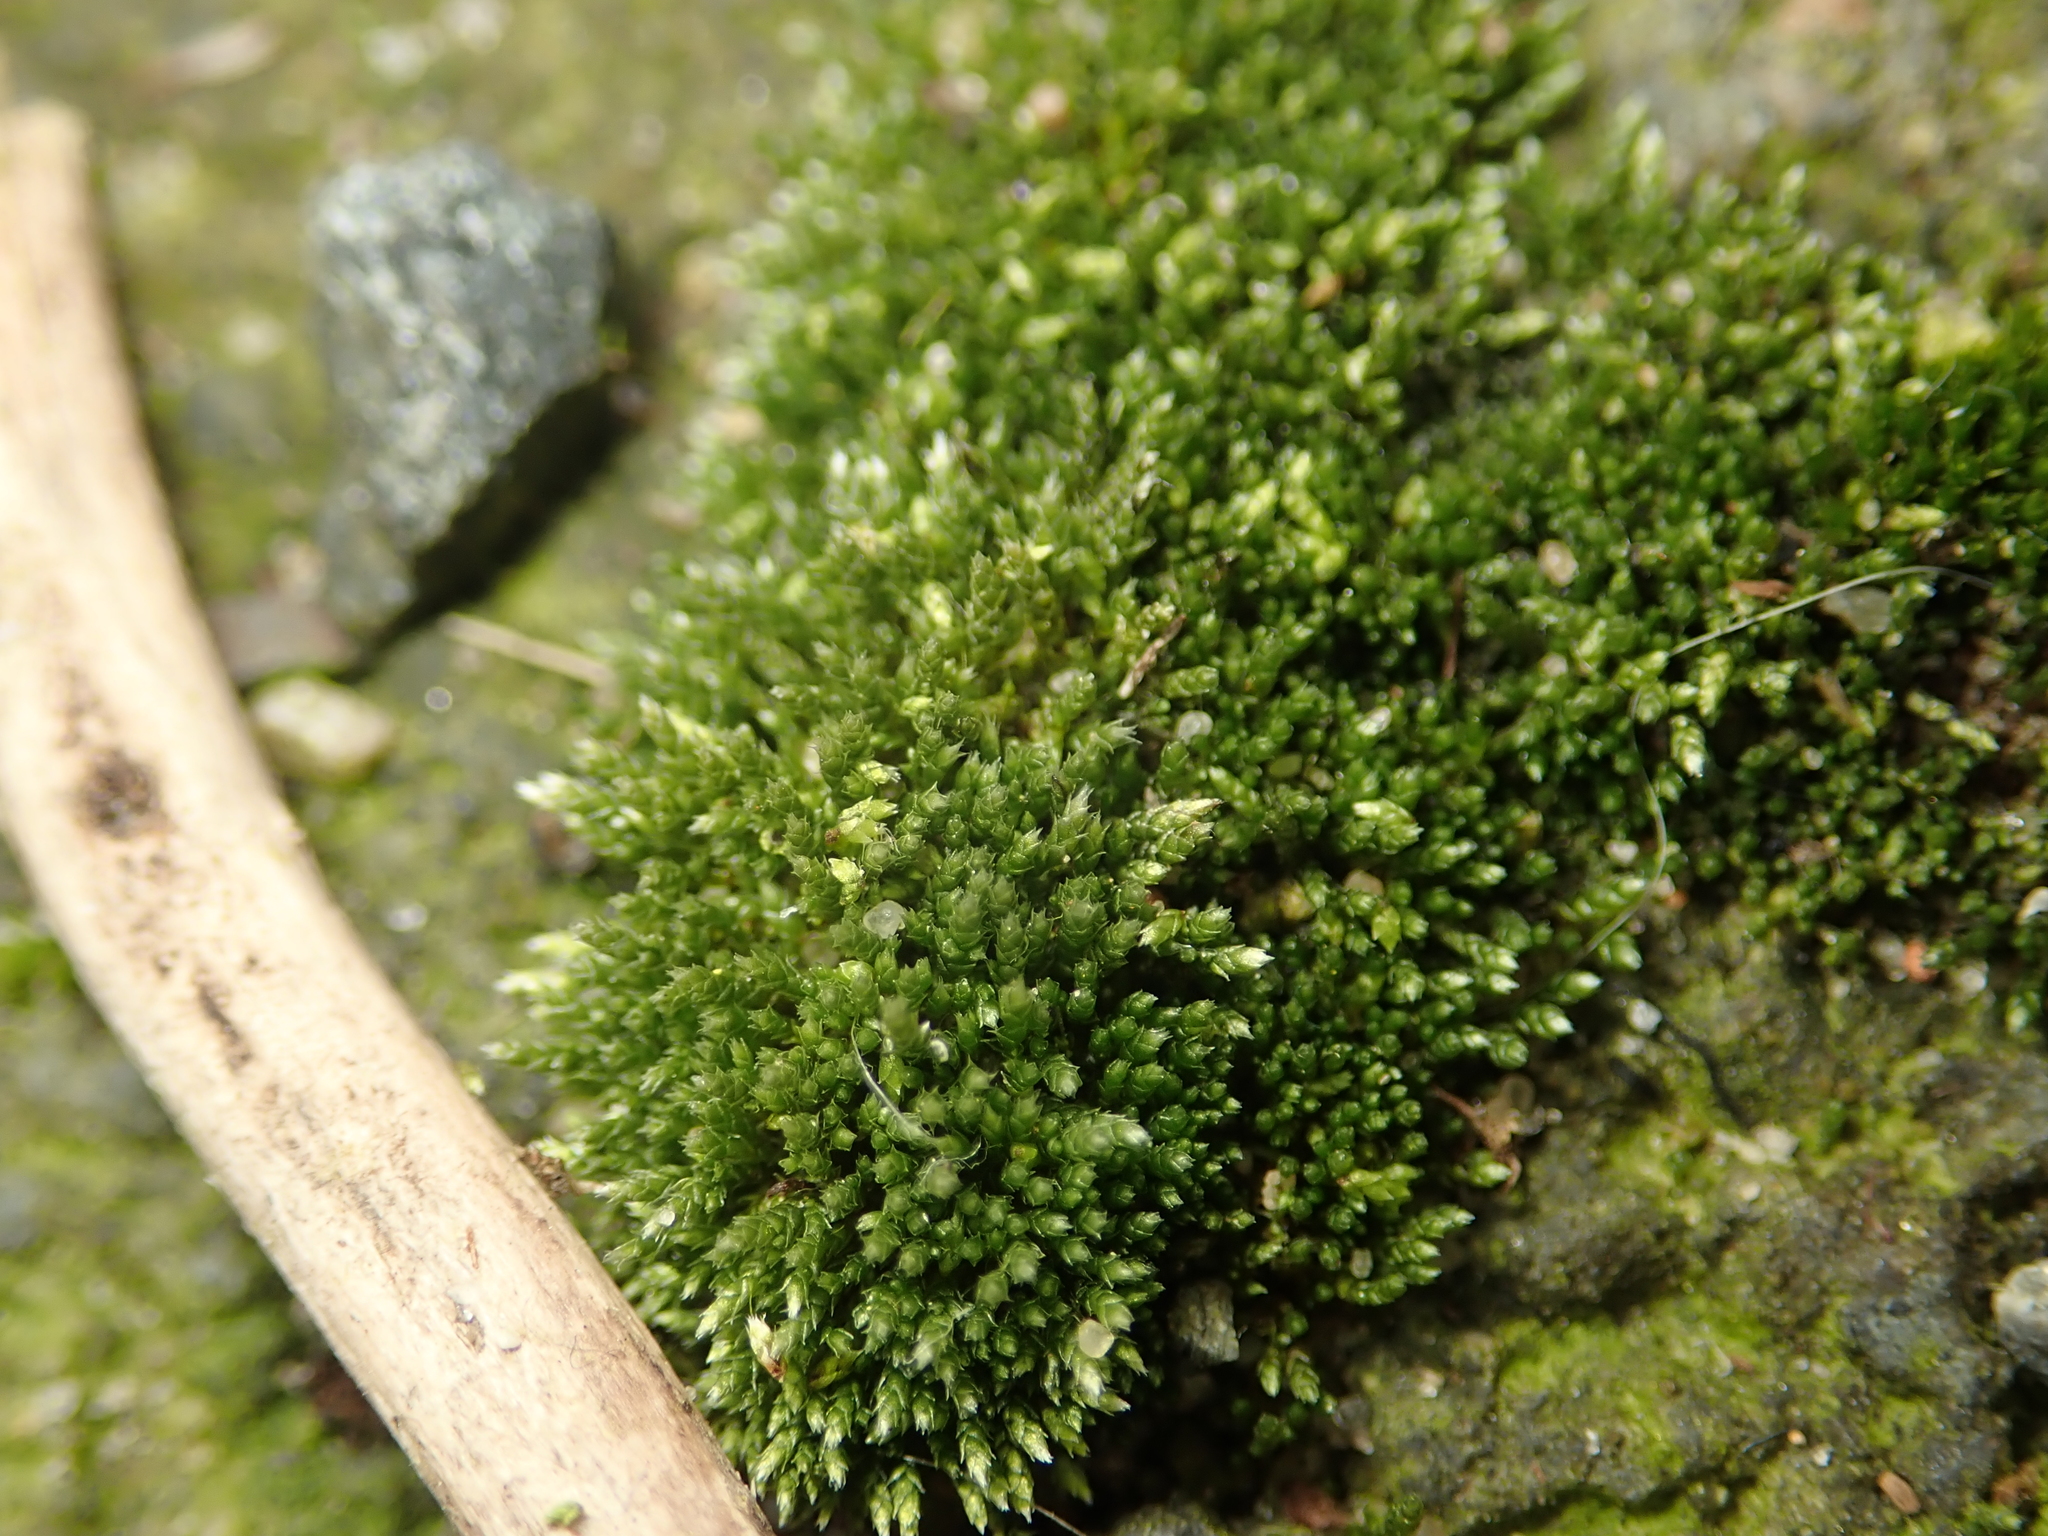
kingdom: Plantae
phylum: Bryophyta
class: Bryopsida
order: Bryales
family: Bryaceae
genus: Bryum
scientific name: Bryum argenteum
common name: Silver-moss
